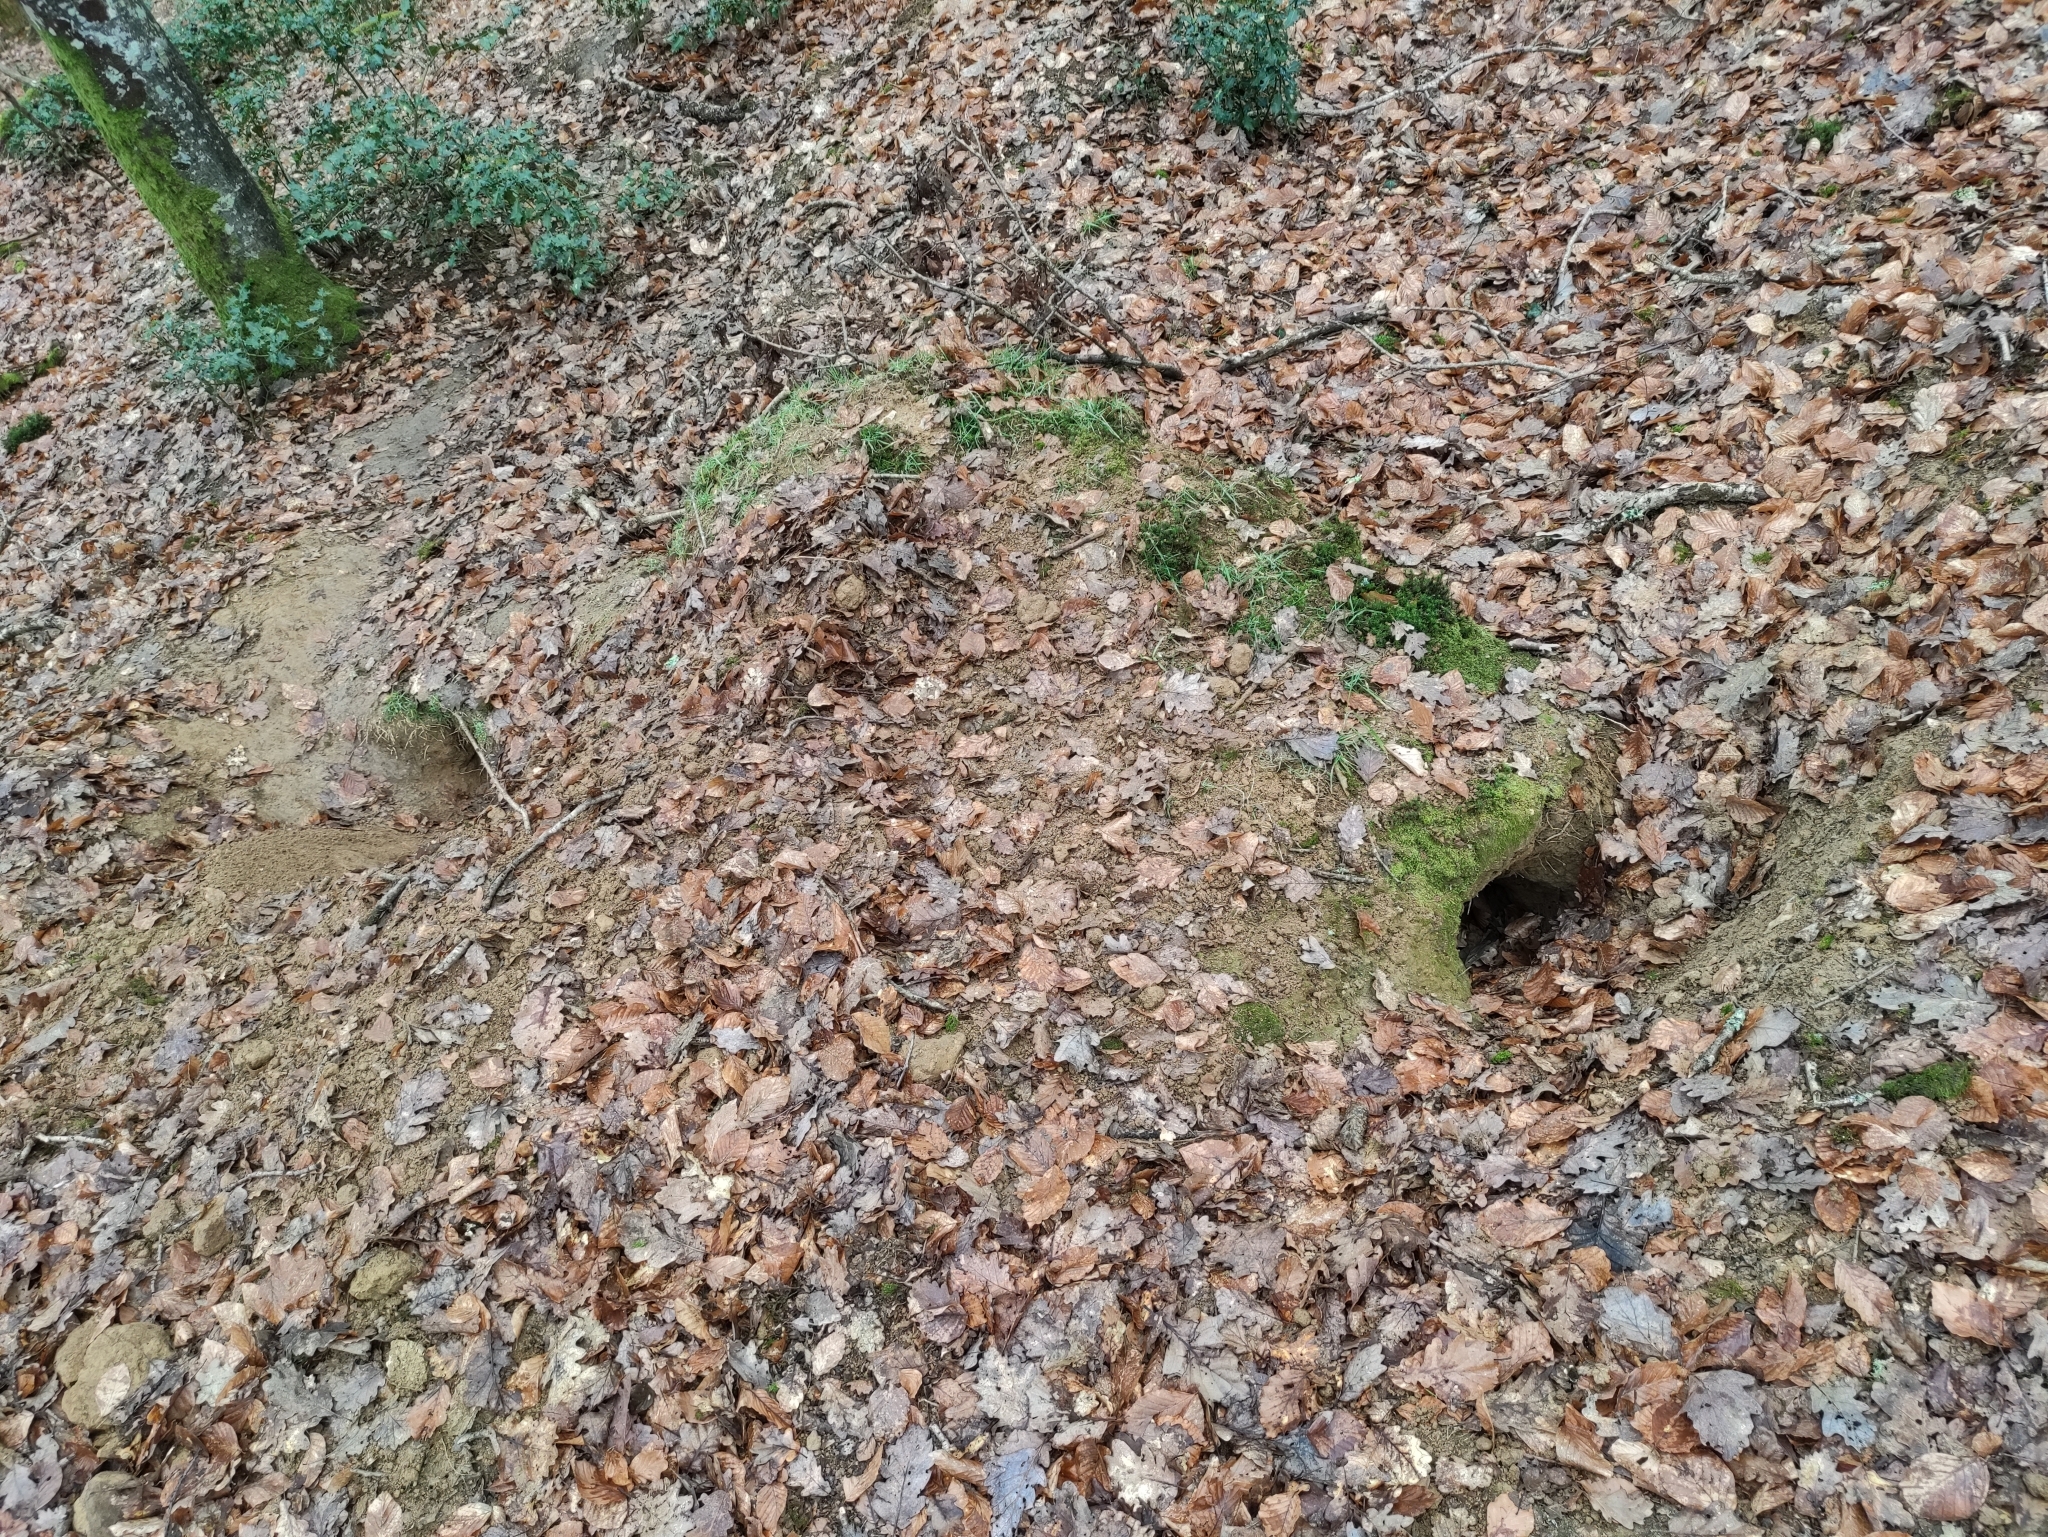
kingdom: Animalia
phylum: Chordata
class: Mammalia
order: Carnivora
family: Mustelidae
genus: Meles
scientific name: Meles meles
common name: Eurasian badger
